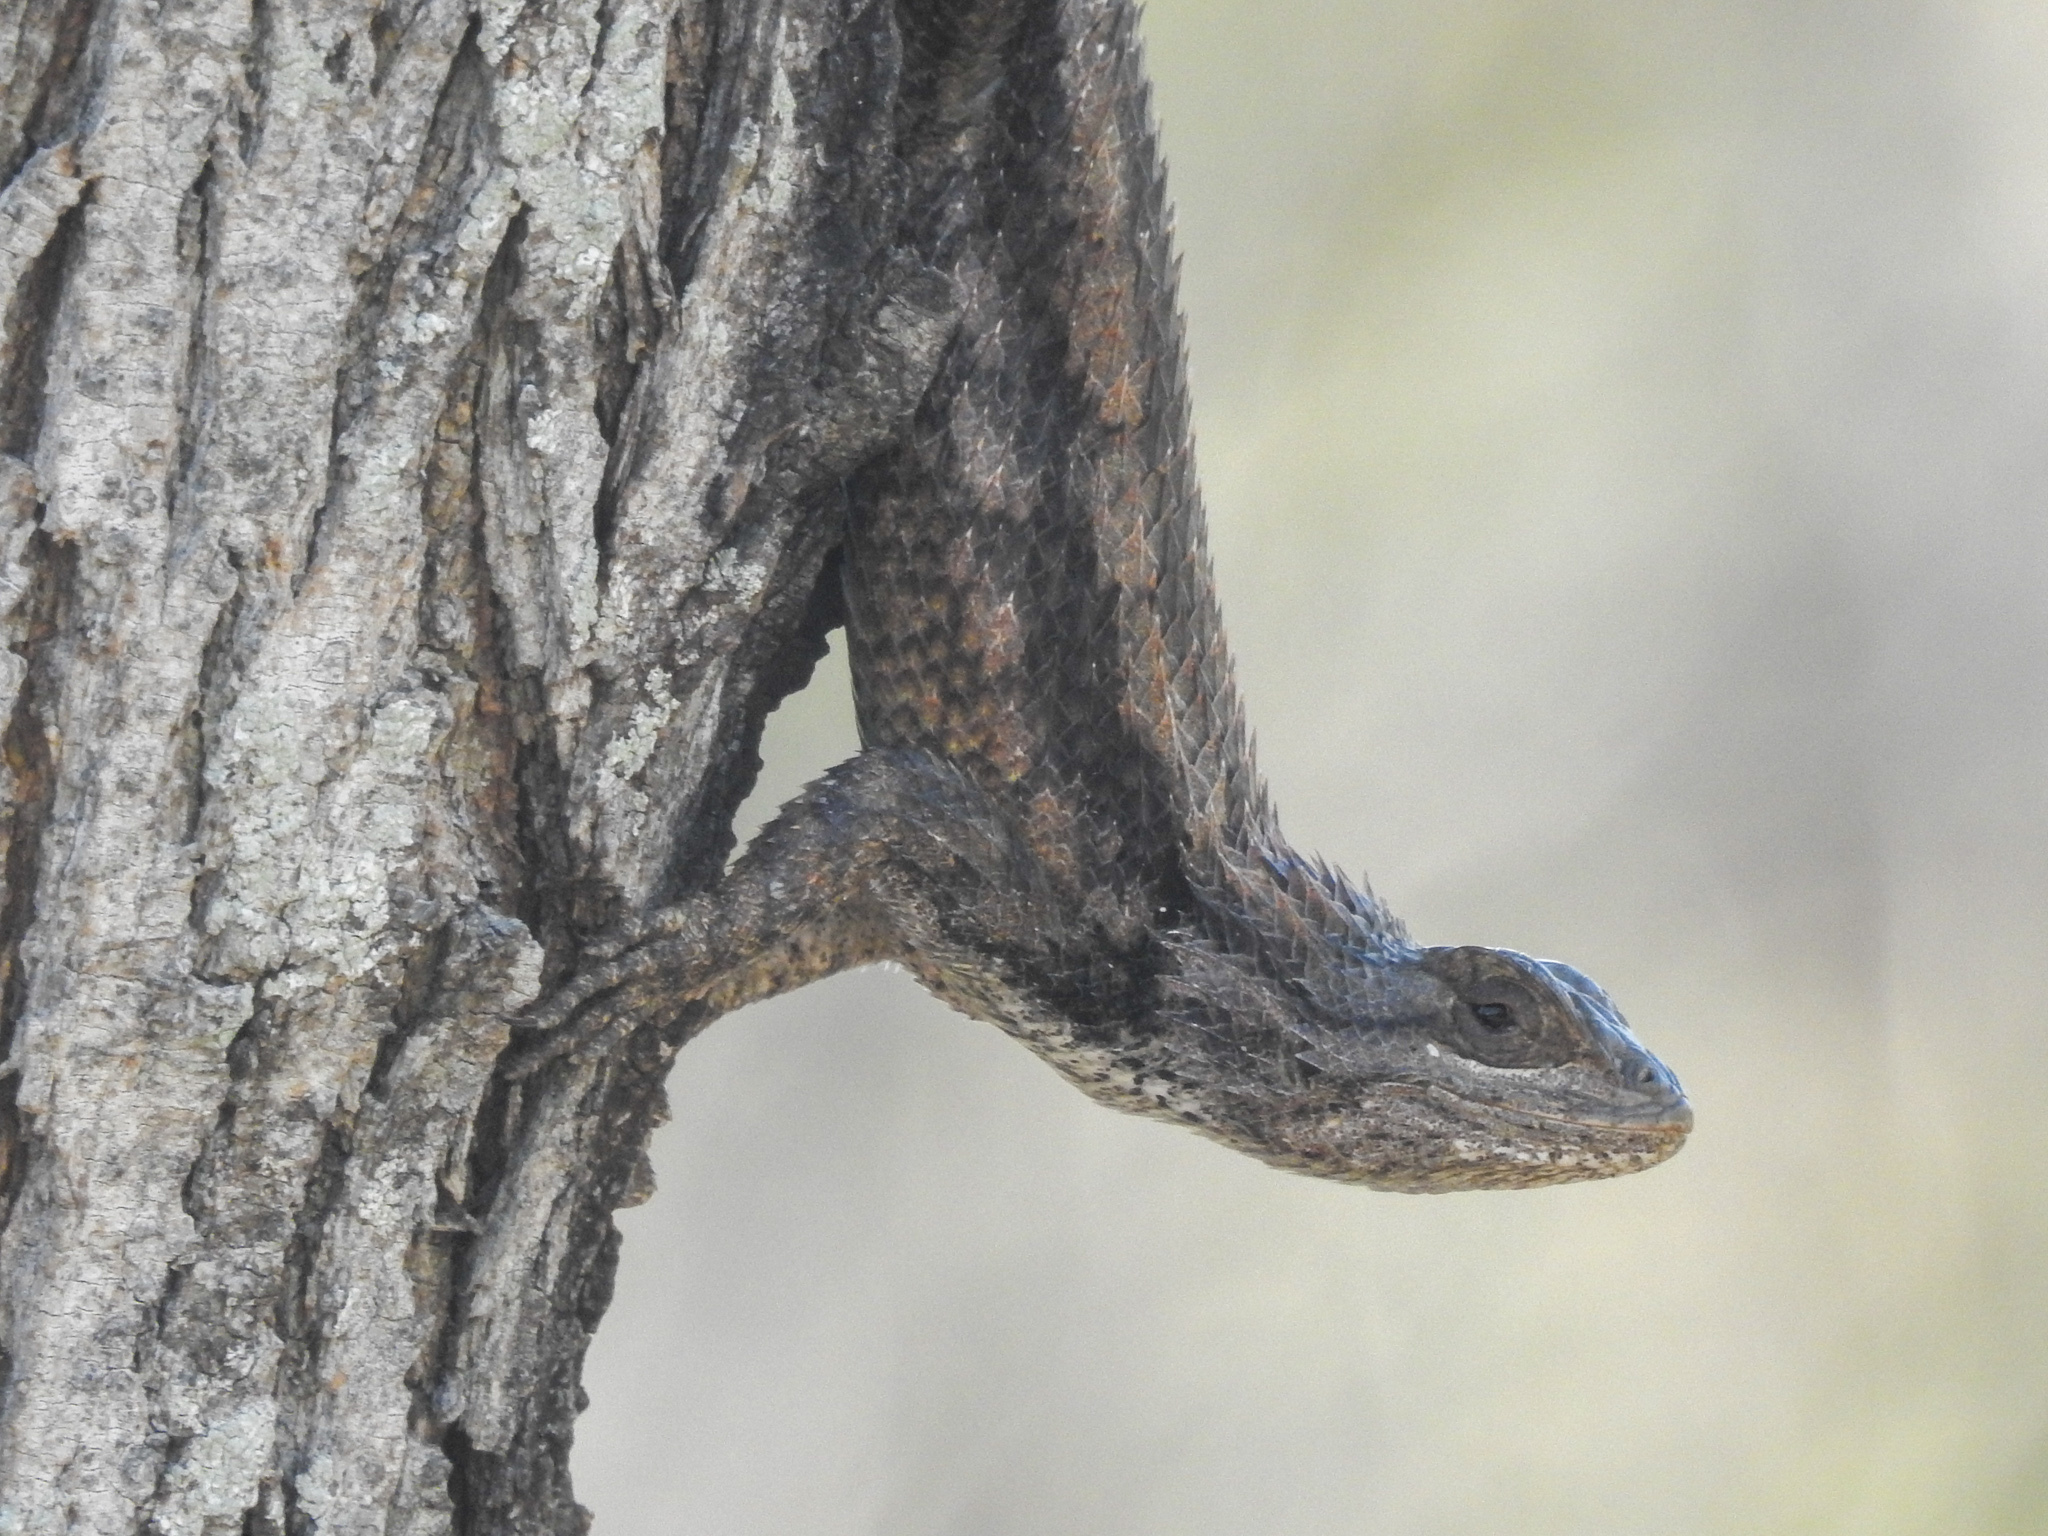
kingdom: Animalia
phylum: Chordata
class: Squamata
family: Phrynosomatidae
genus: Sceloporus
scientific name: Sceloporus olivaceus
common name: Texas spiny lizard
